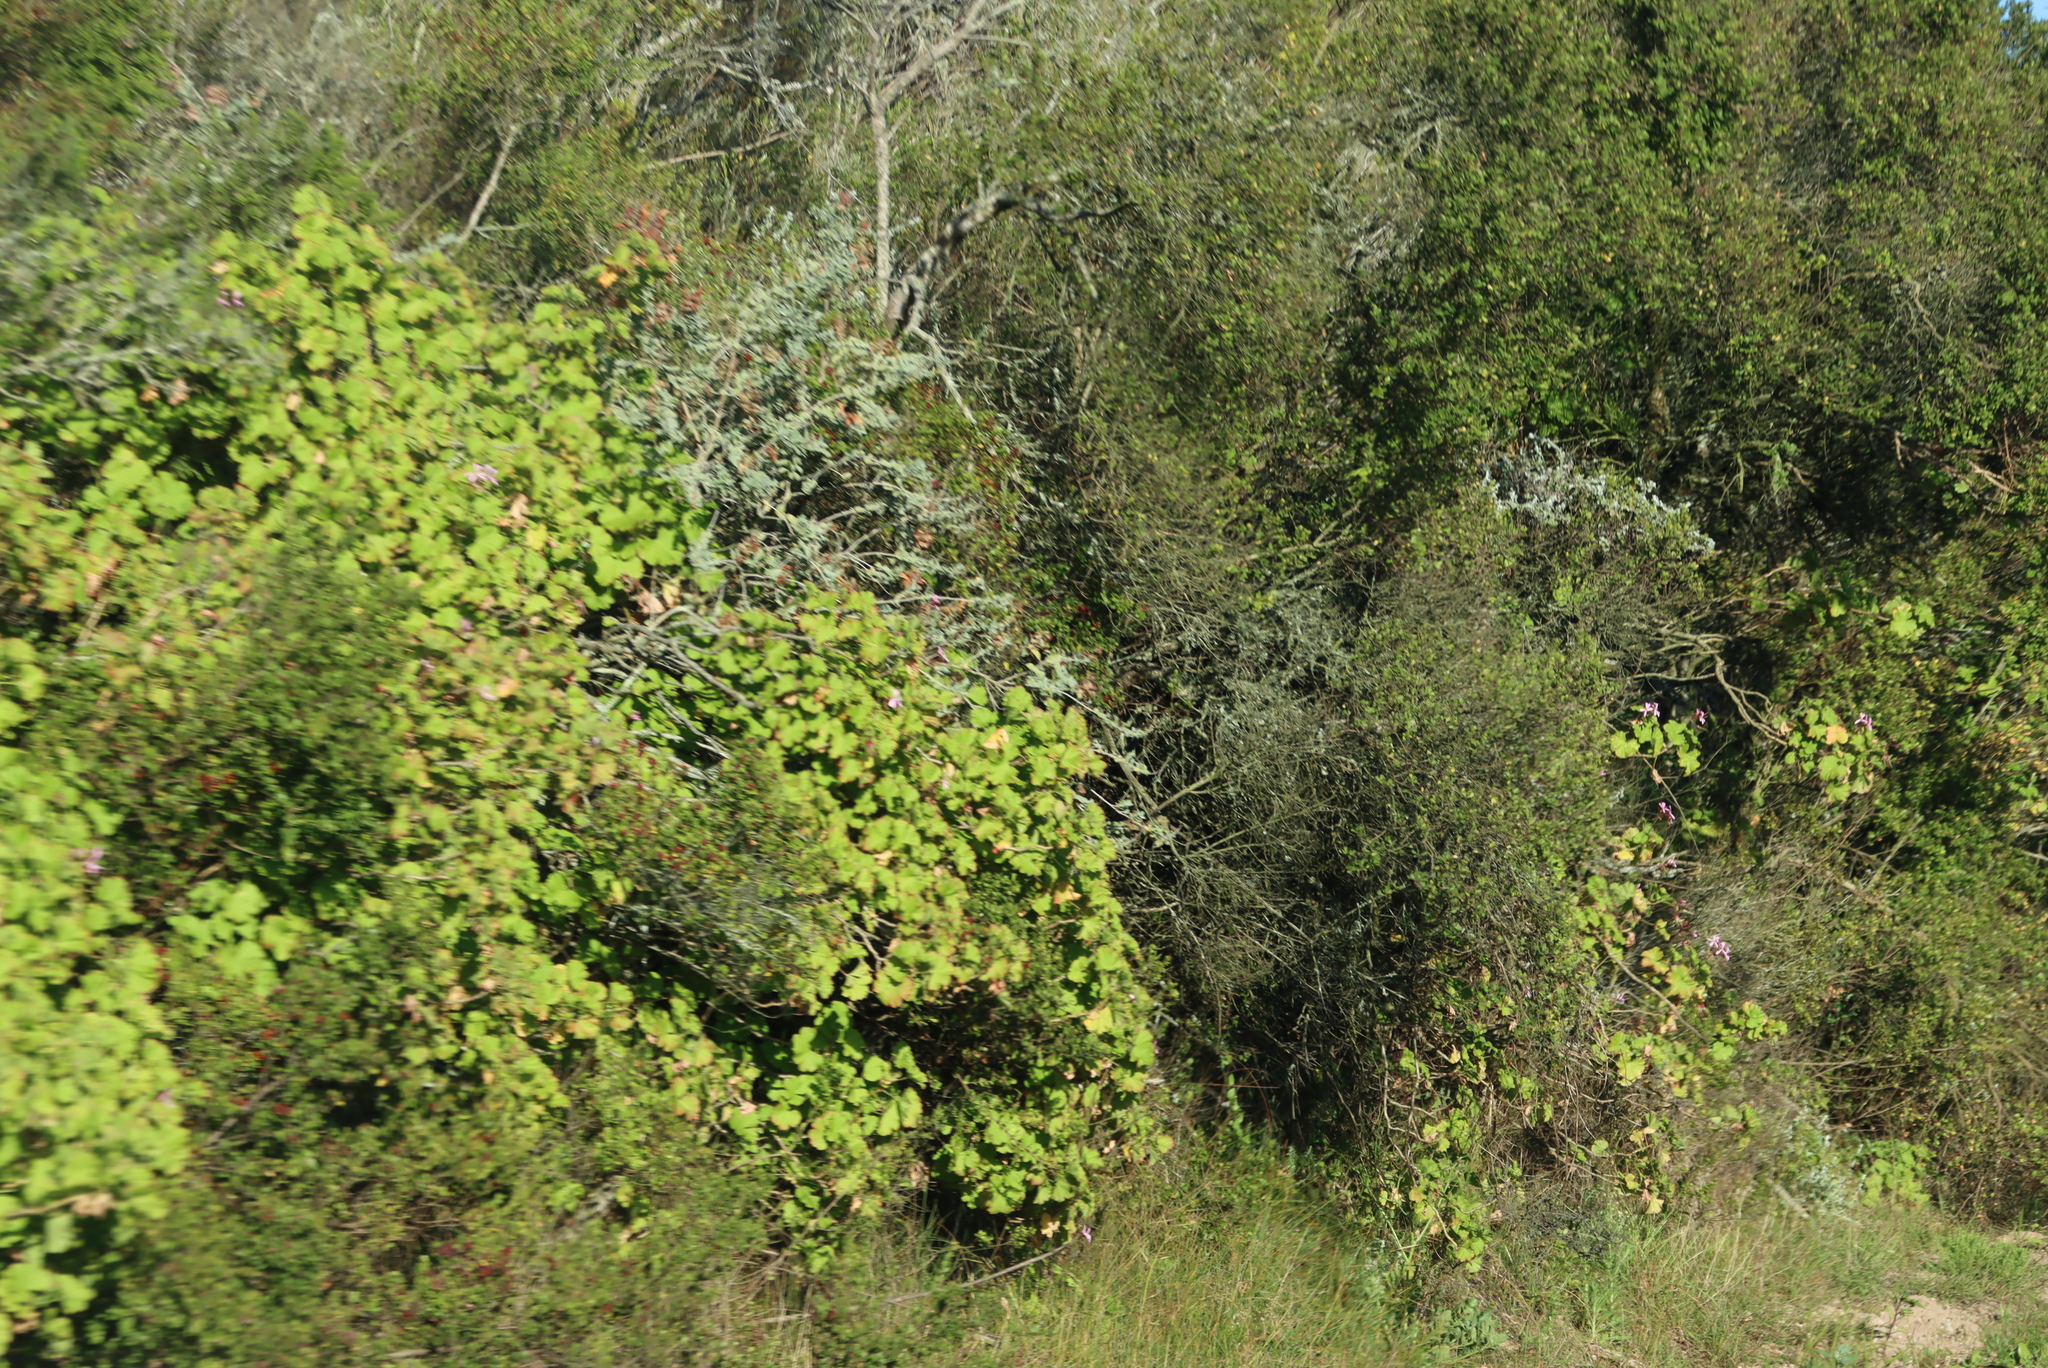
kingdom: Plantae
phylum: Tracheophyta
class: Magnoliopsida
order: Geraniales
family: Geraniaceae
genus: Pelargonium
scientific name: Pelargonium zonale
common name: Horseshoe geranium
